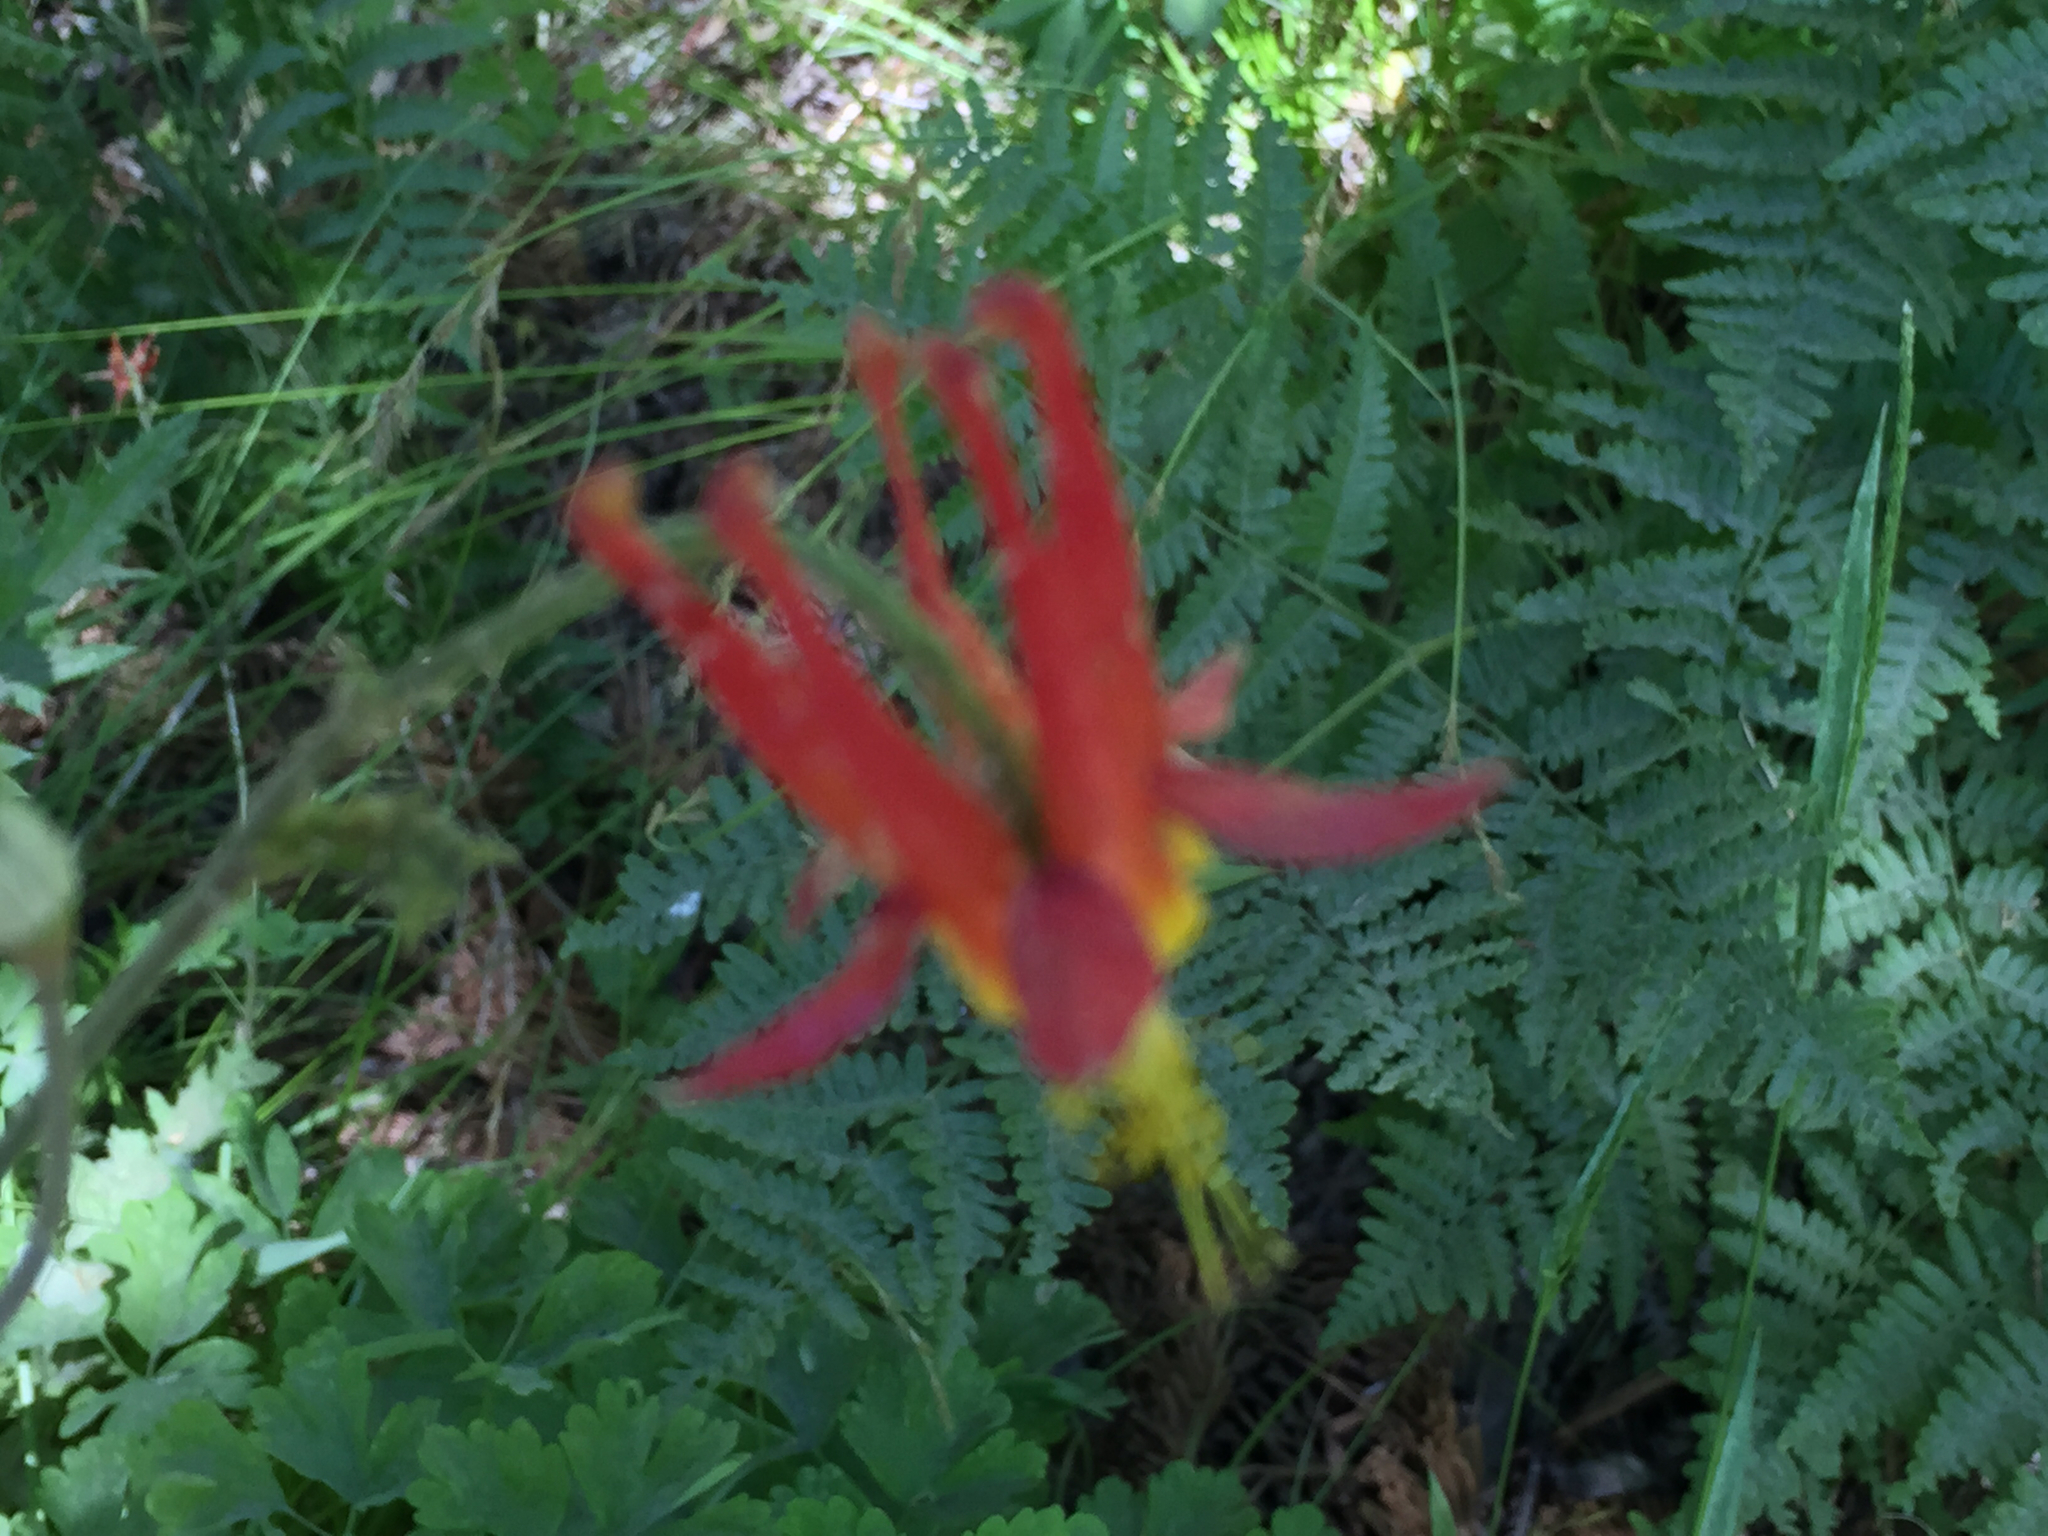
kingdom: Plantae
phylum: Tracheophyta
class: Magnoliopsida
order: Ranunculales
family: Ranunculaceae
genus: Aquilegia
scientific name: Aquilegia formosa
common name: Sitka columbine
